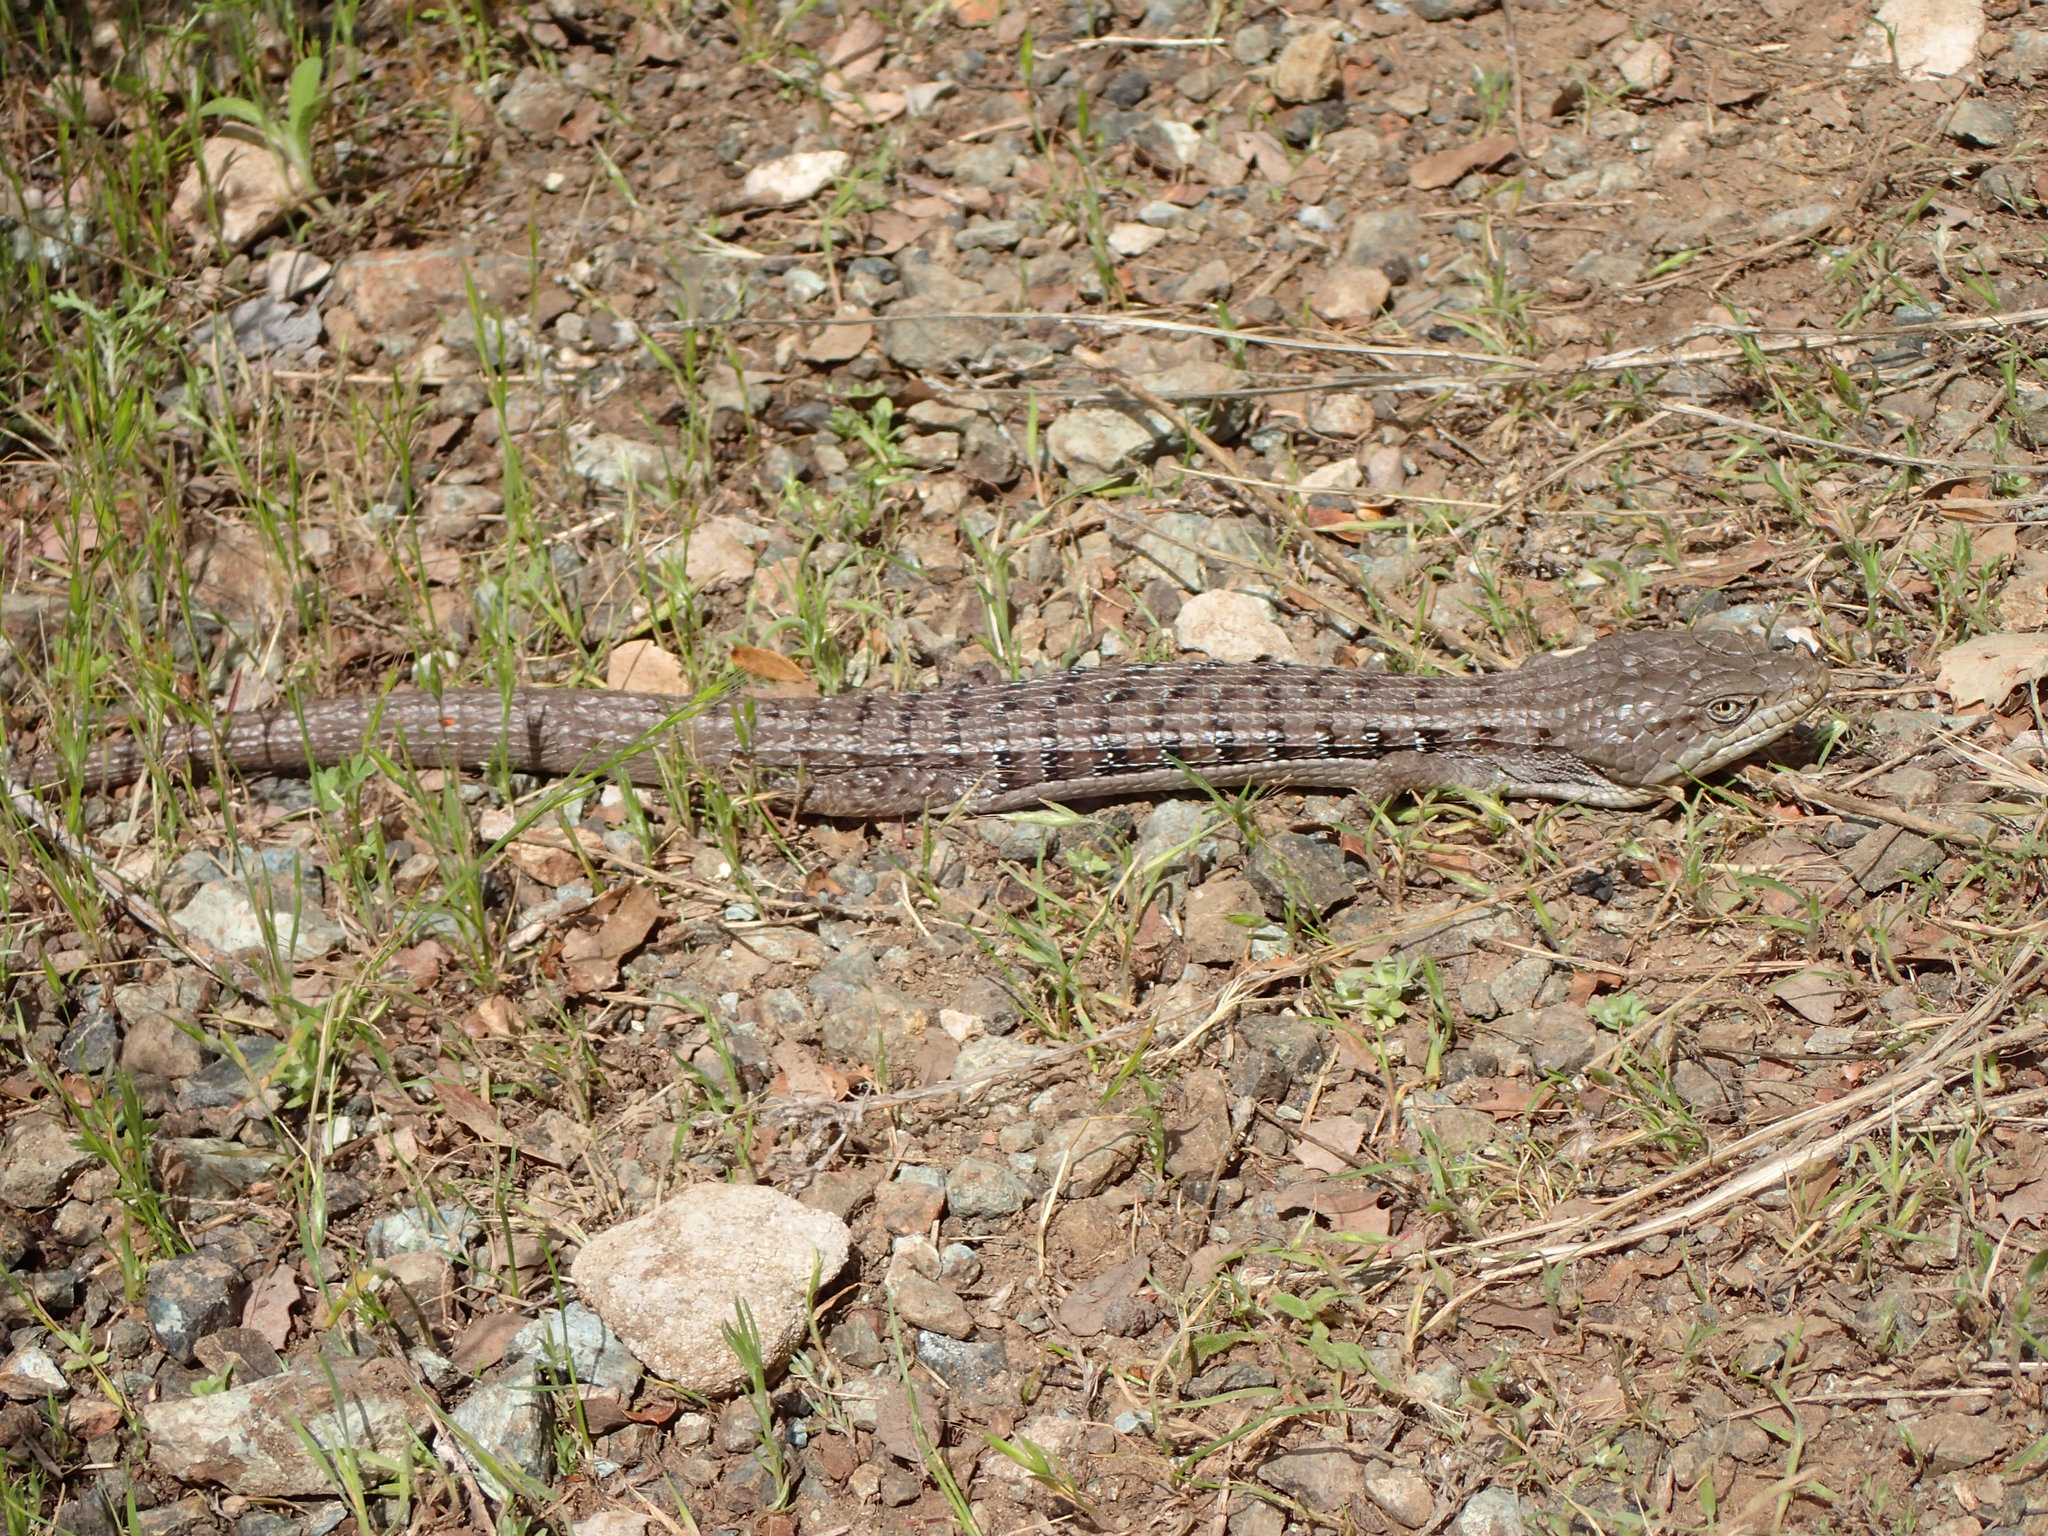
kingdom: Animalia
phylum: Chordata
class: Squamata
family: Anguidae
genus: Elgaria
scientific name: Elgaria multicarinata
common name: Southern alligator lizard
